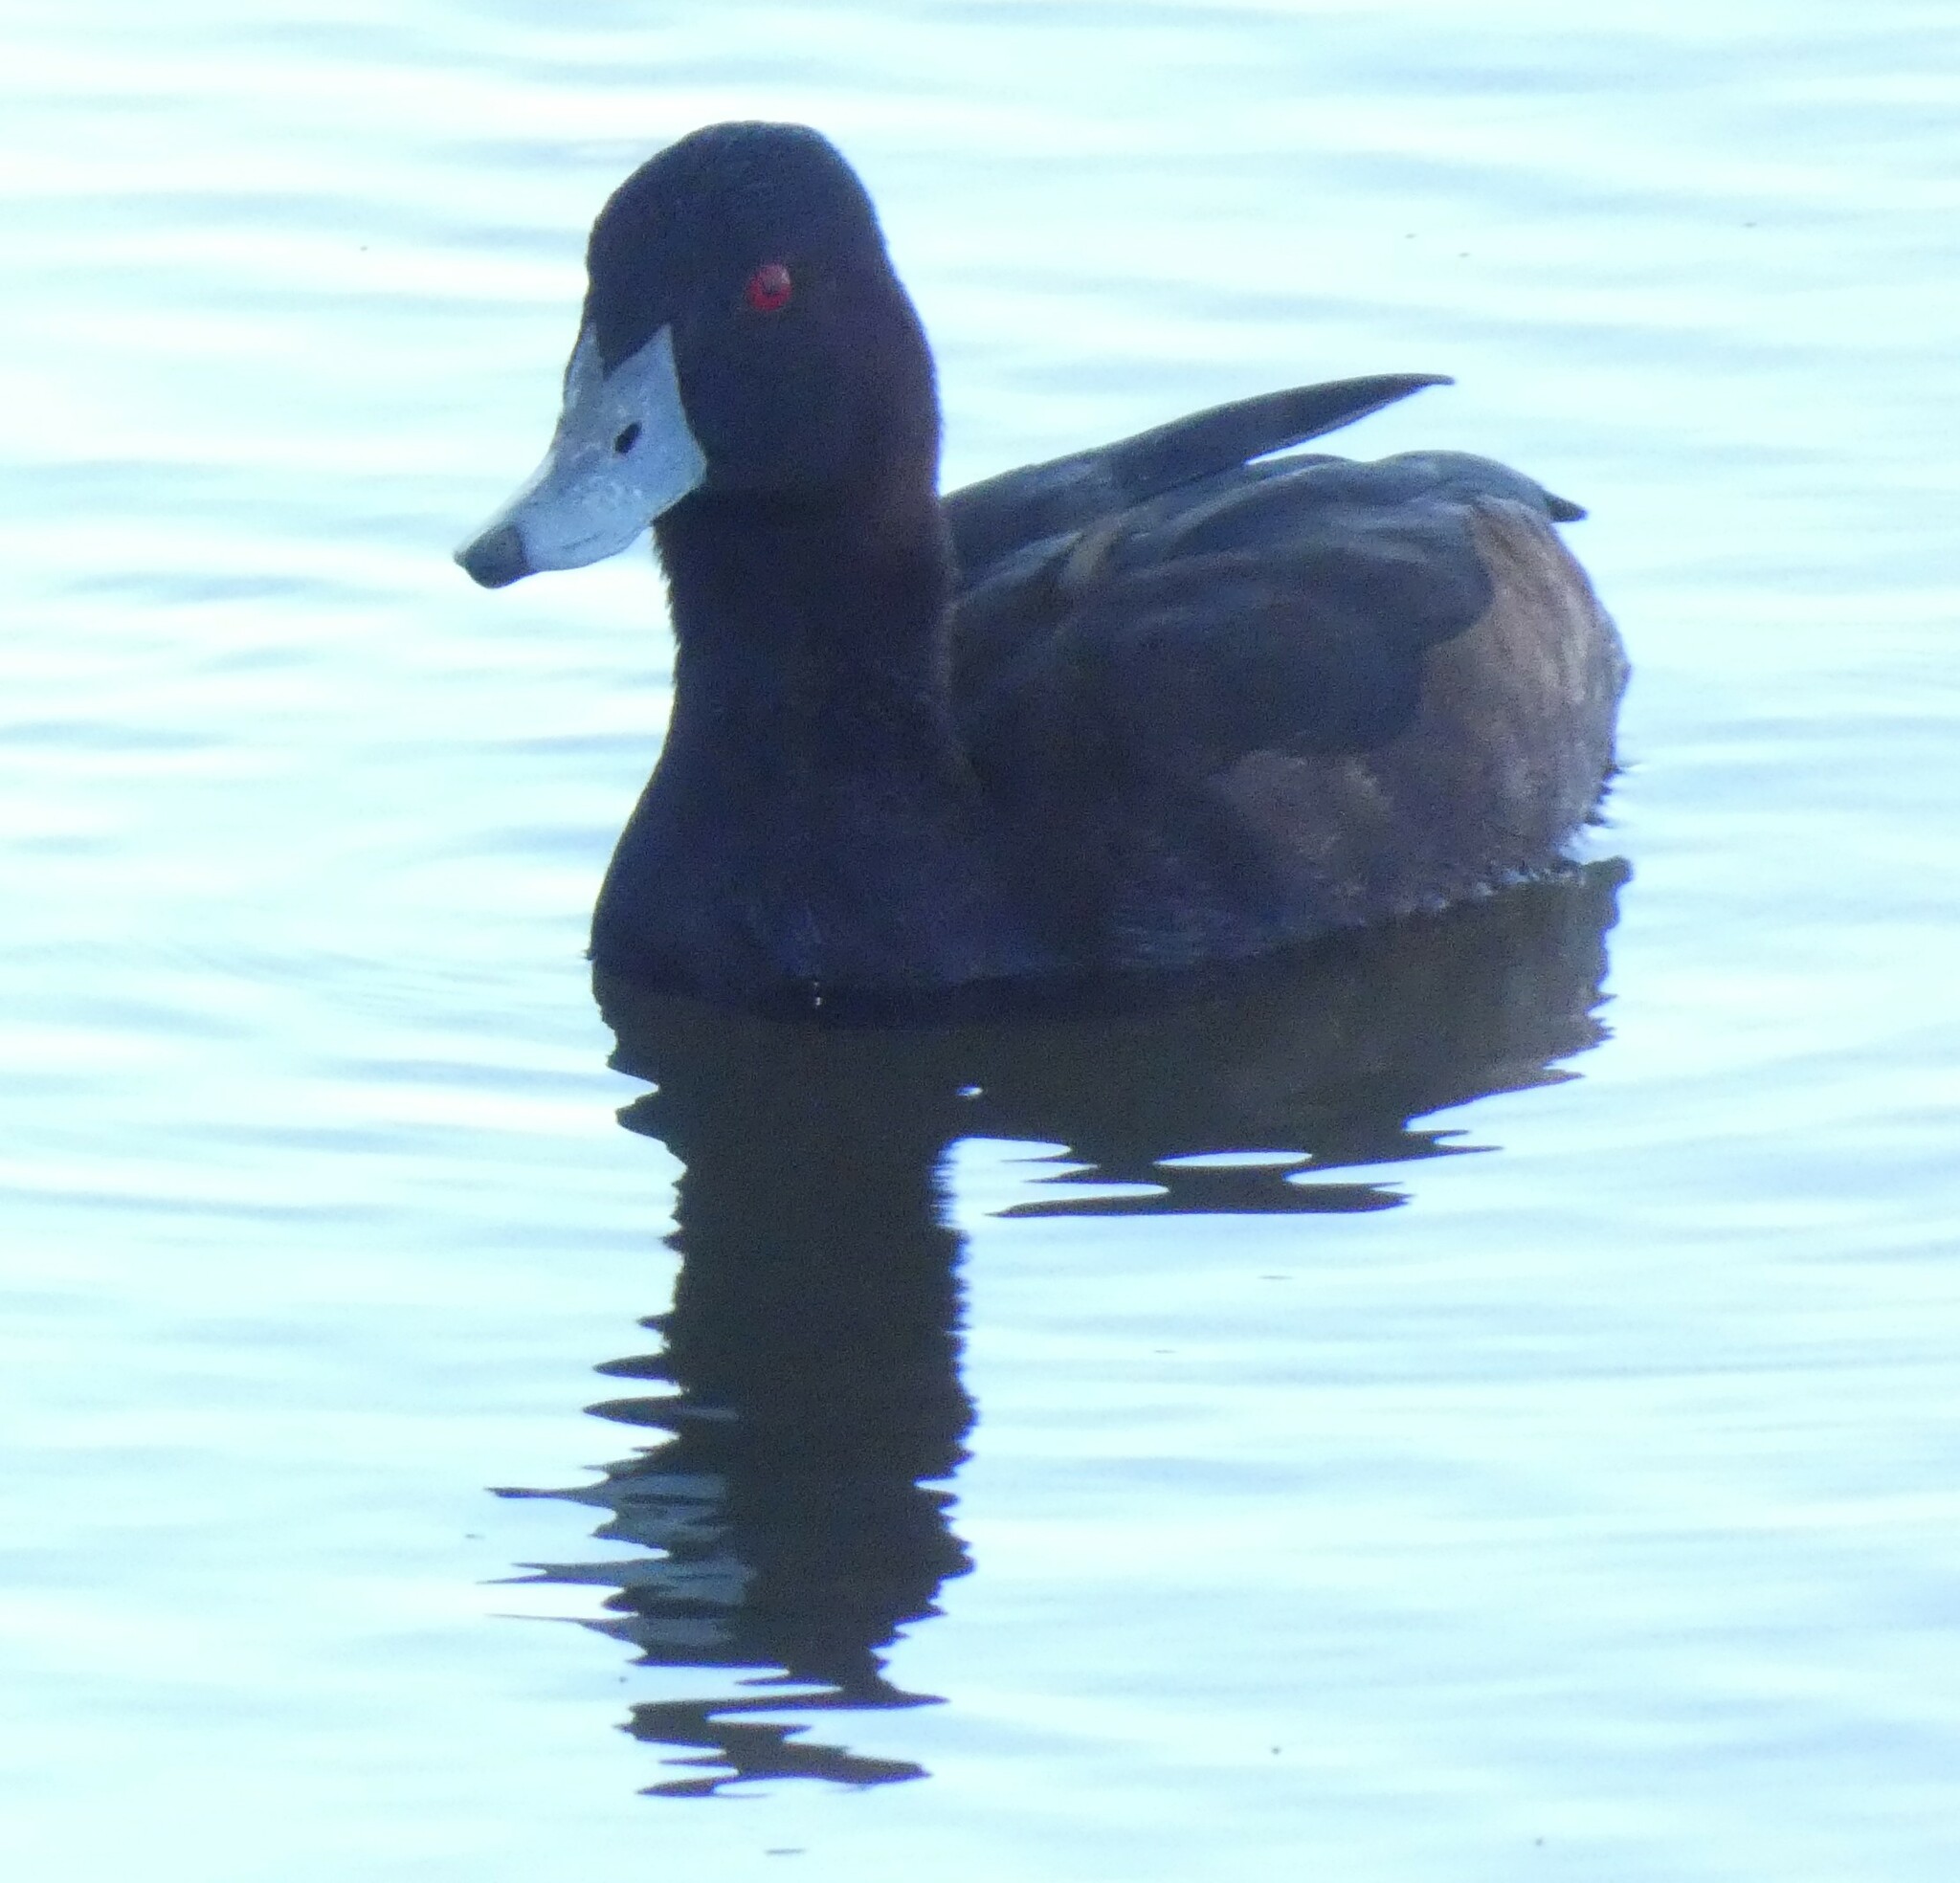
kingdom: Animalia
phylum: Chordata
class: Aves
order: Anseriformes
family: Anatidae
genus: Netta
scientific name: Netta erythrophthalma
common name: Southern pochard
